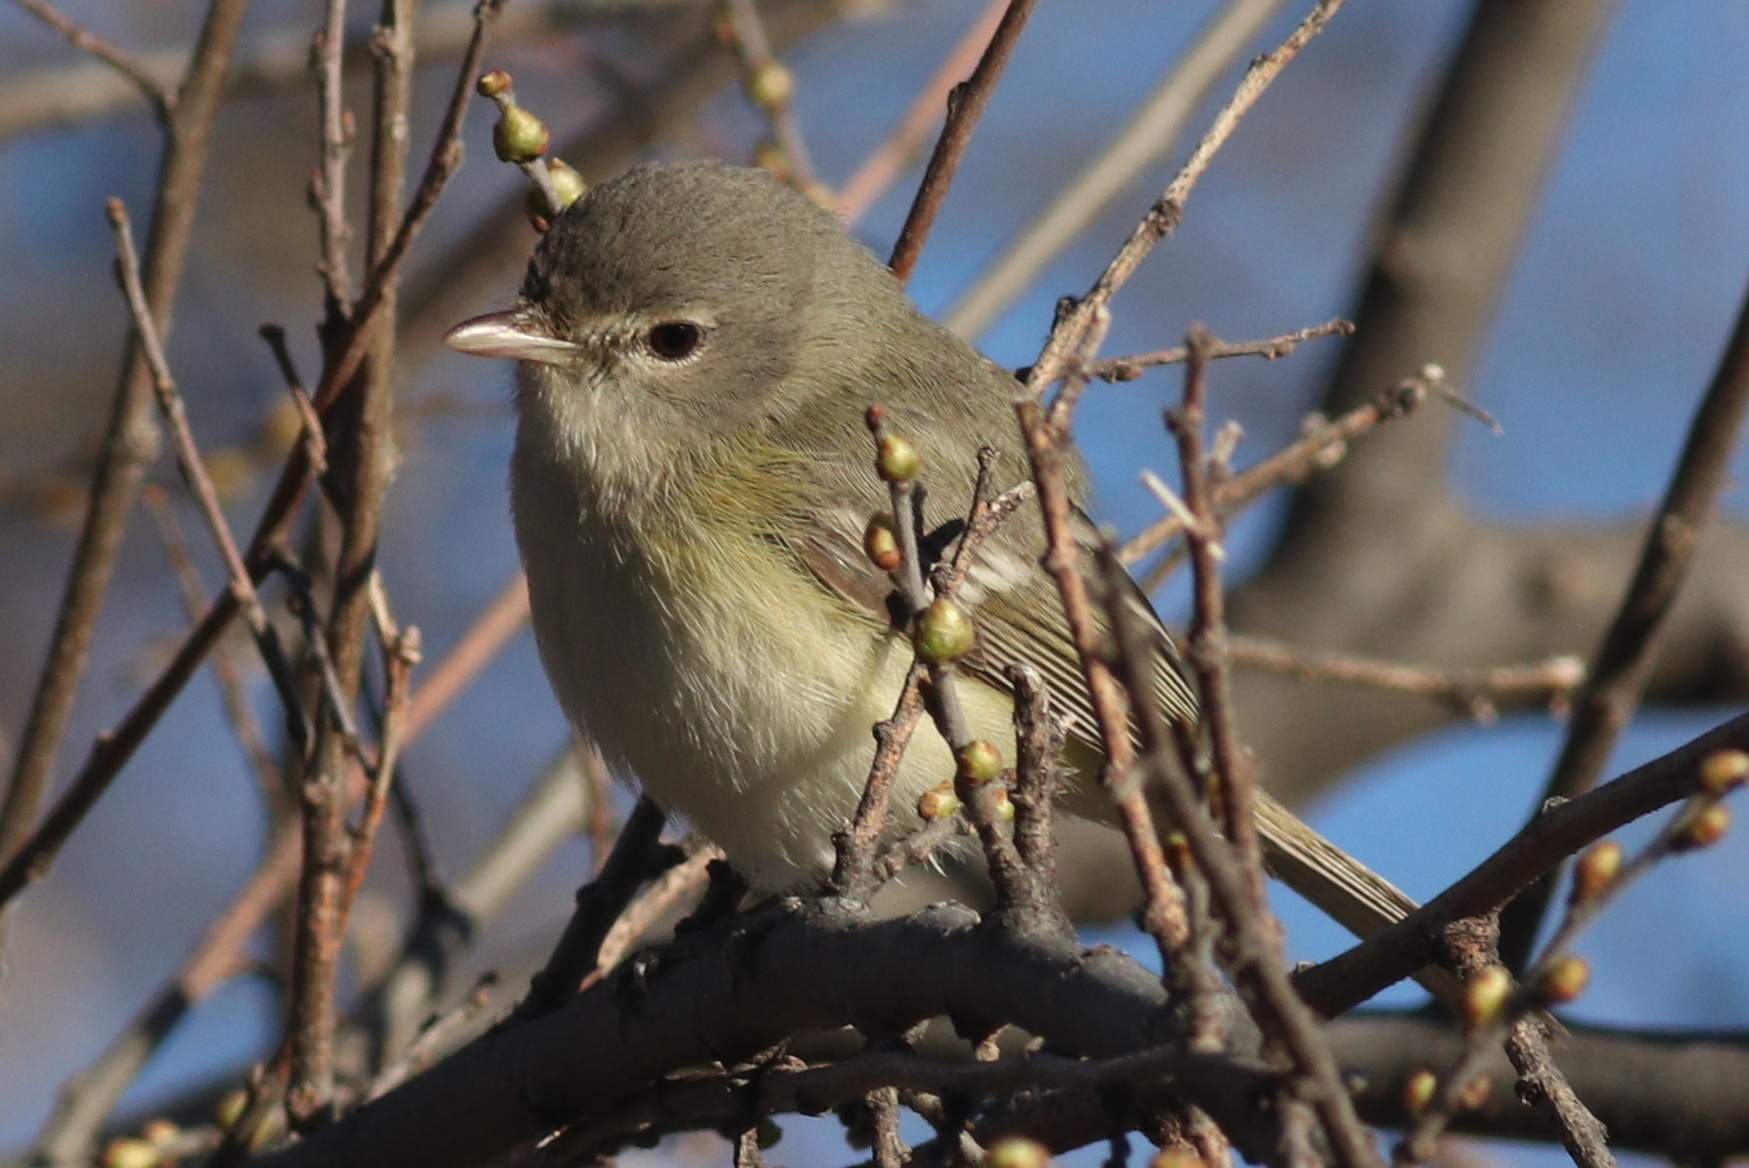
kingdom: Animalia
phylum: Chordata
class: Aves
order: Passeriformes
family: Vireonidae
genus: Vireo
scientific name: Vireo bellii
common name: Bell's vireo
